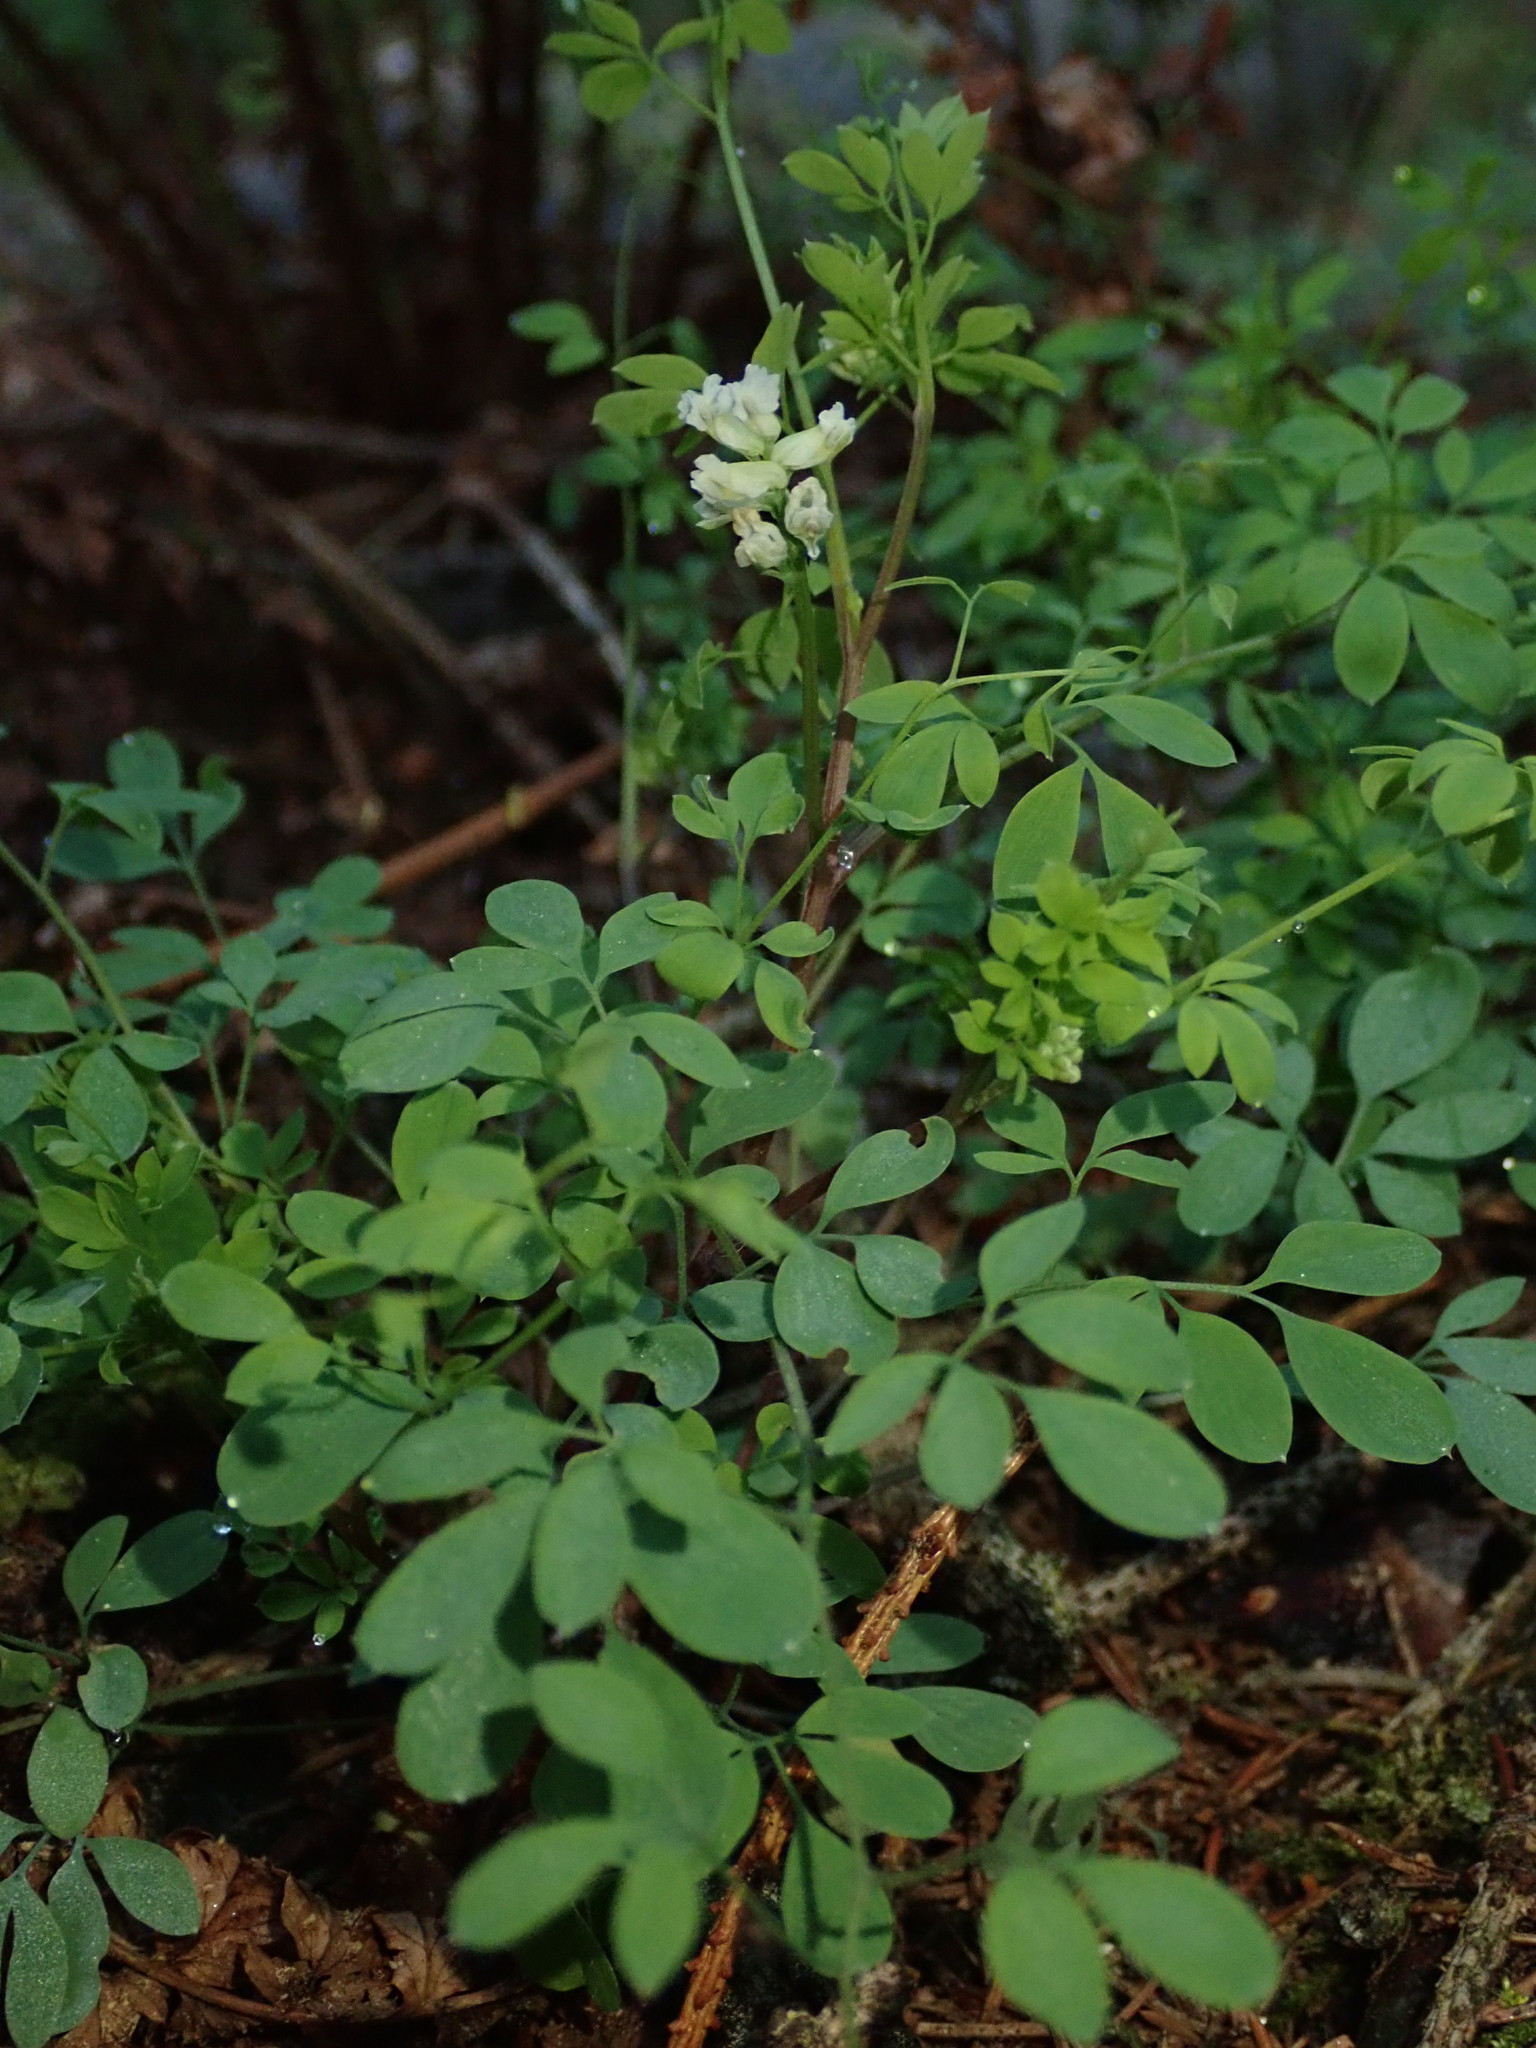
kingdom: Plantae
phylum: Tracheophyta
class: Magnoliopsida
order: Ranunculales
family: Papaveraceae
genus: Ceratocapnos
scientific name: Ceratocapnos claviculata
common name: Climbing corydalis
